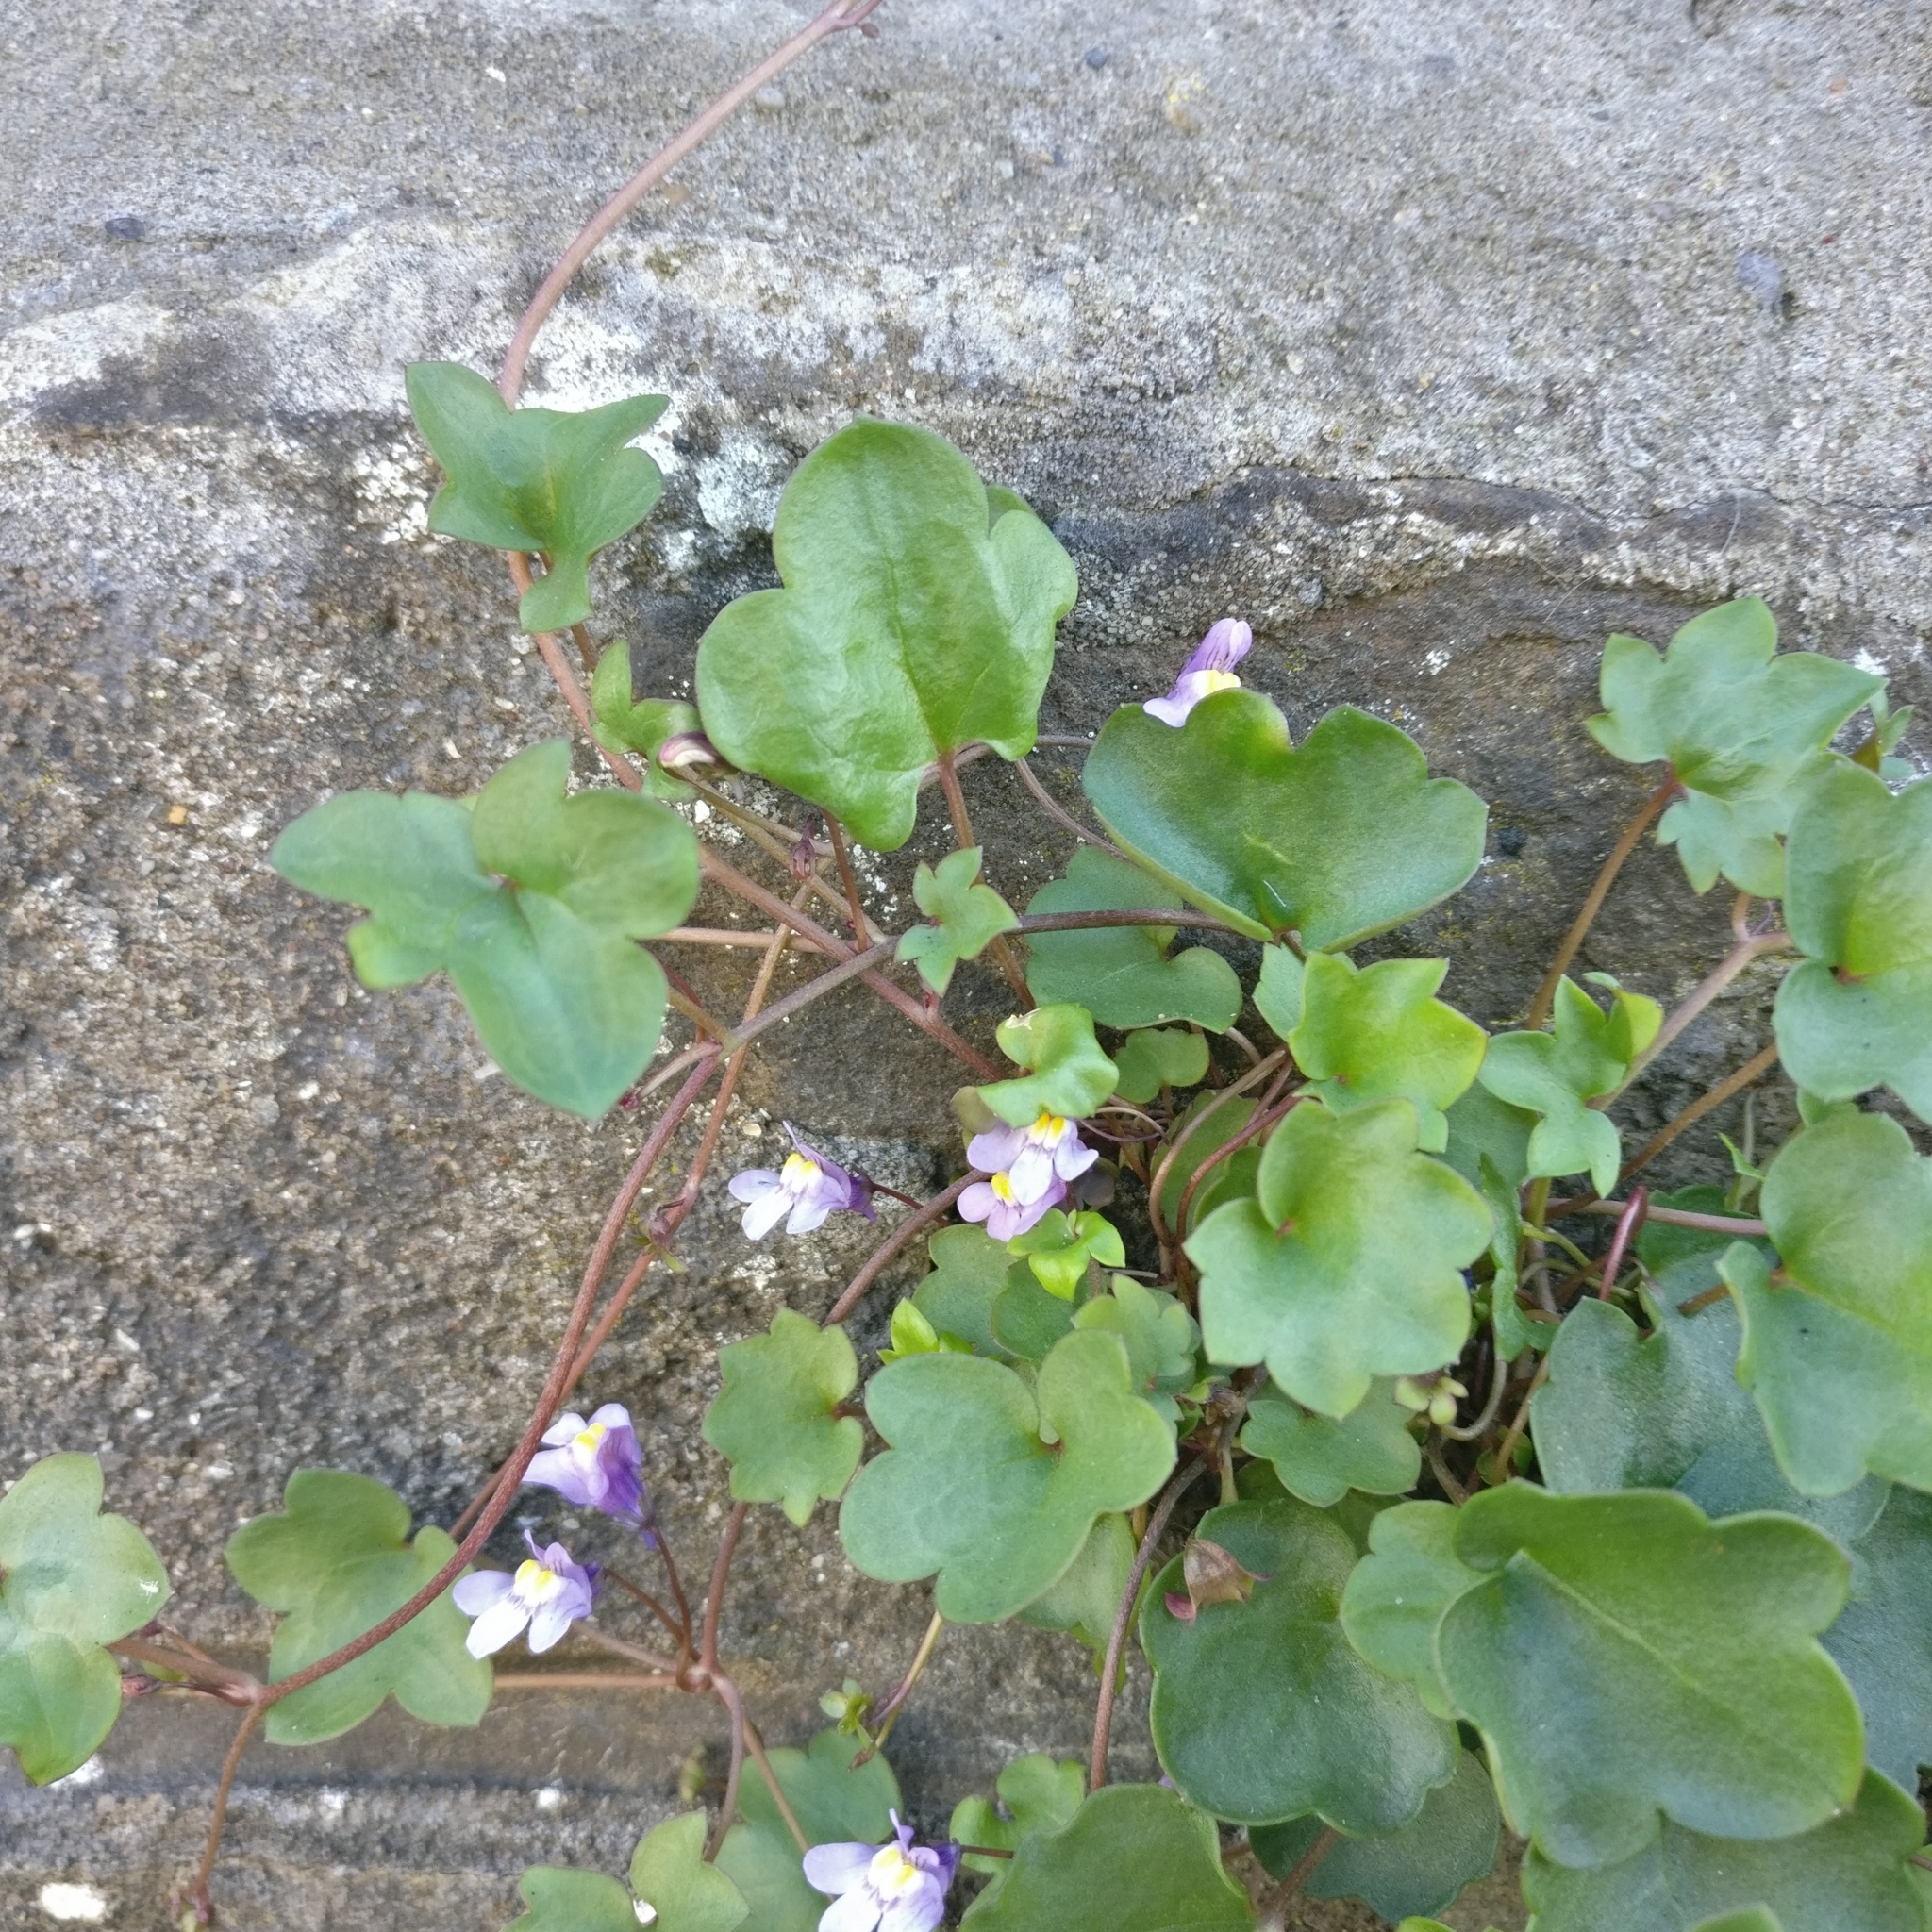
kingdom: Plantae
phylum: Tracheophyta
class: Magnoliopsida
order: Lamiales
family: Plantaginaceae
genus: Cymbalaria
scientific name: Cymbalaria muralis
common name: Ivy-leaved toadflax
